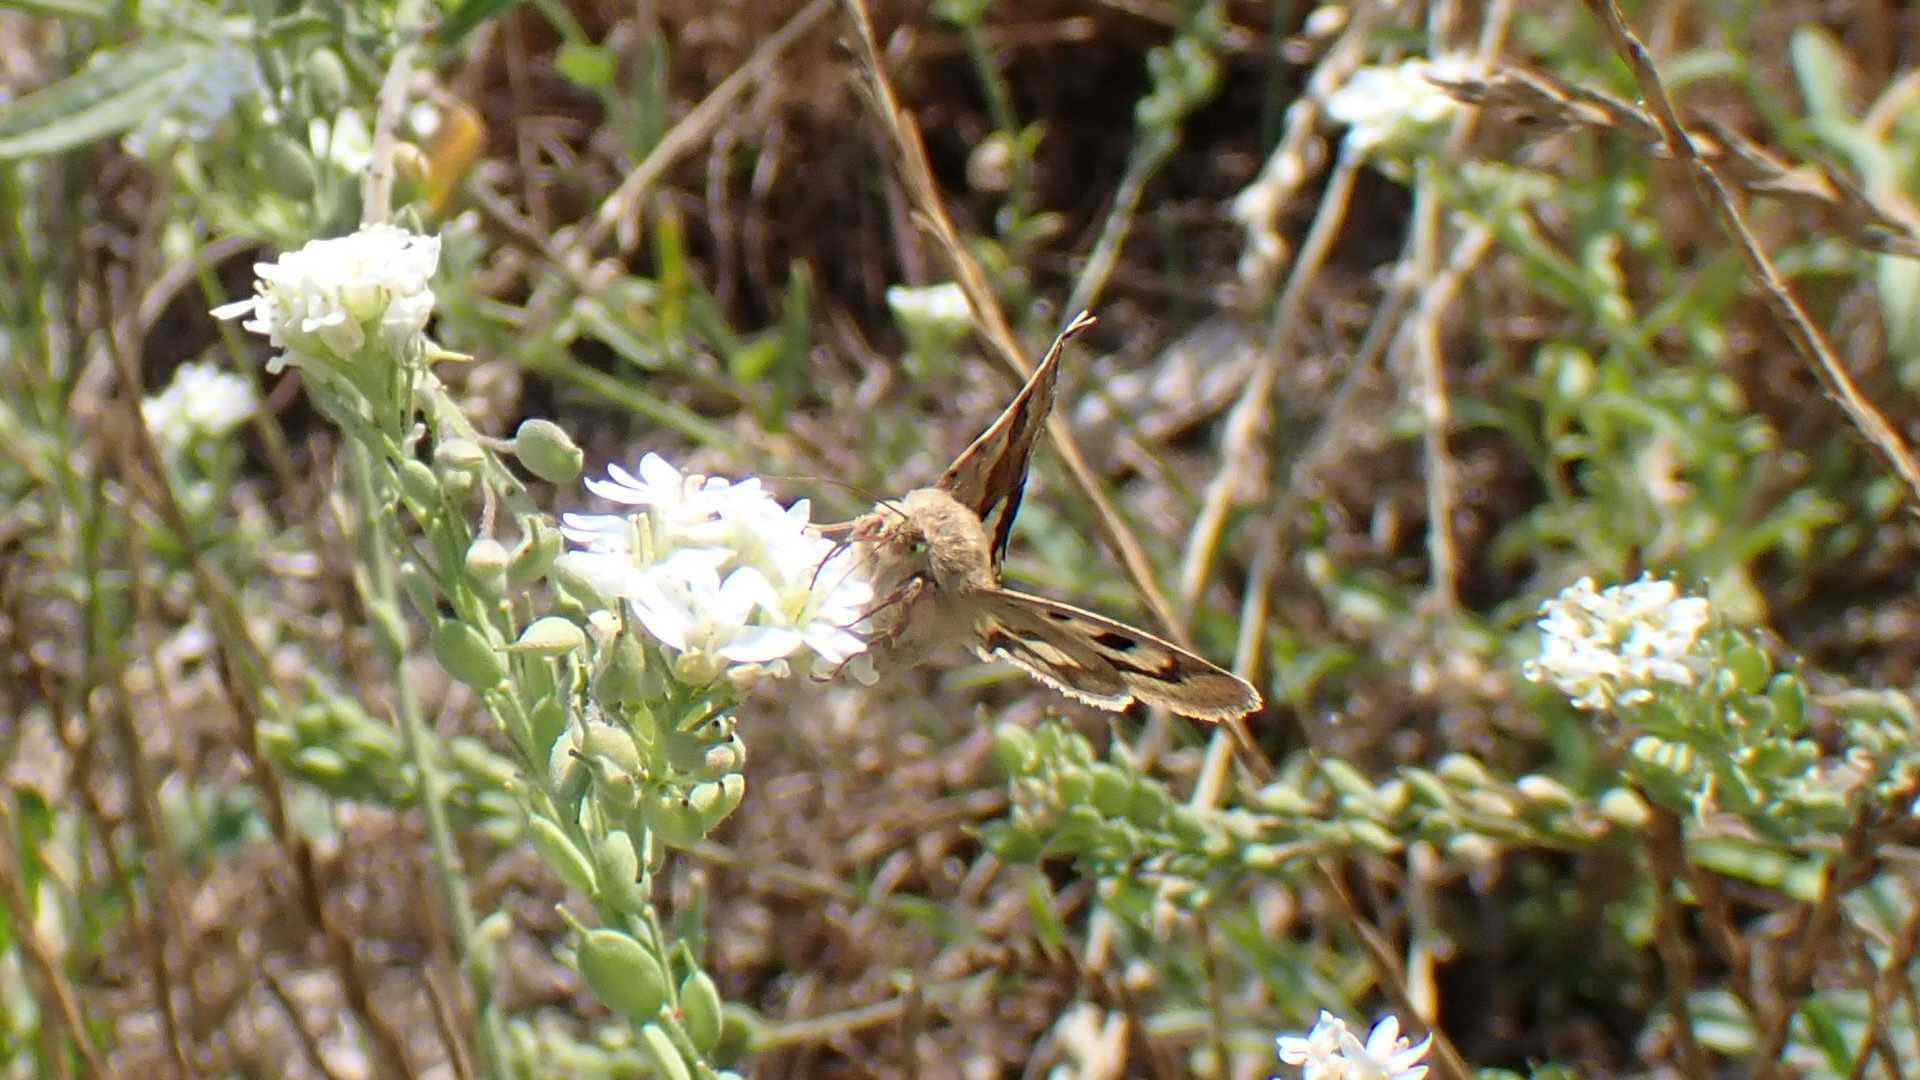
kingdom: Animalia
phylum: Arthropoda
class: Insecta
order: Lepidoptera
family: Noctuidae
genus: Heliothis
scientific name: Heliothis viriplaca
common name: Marbled clover
